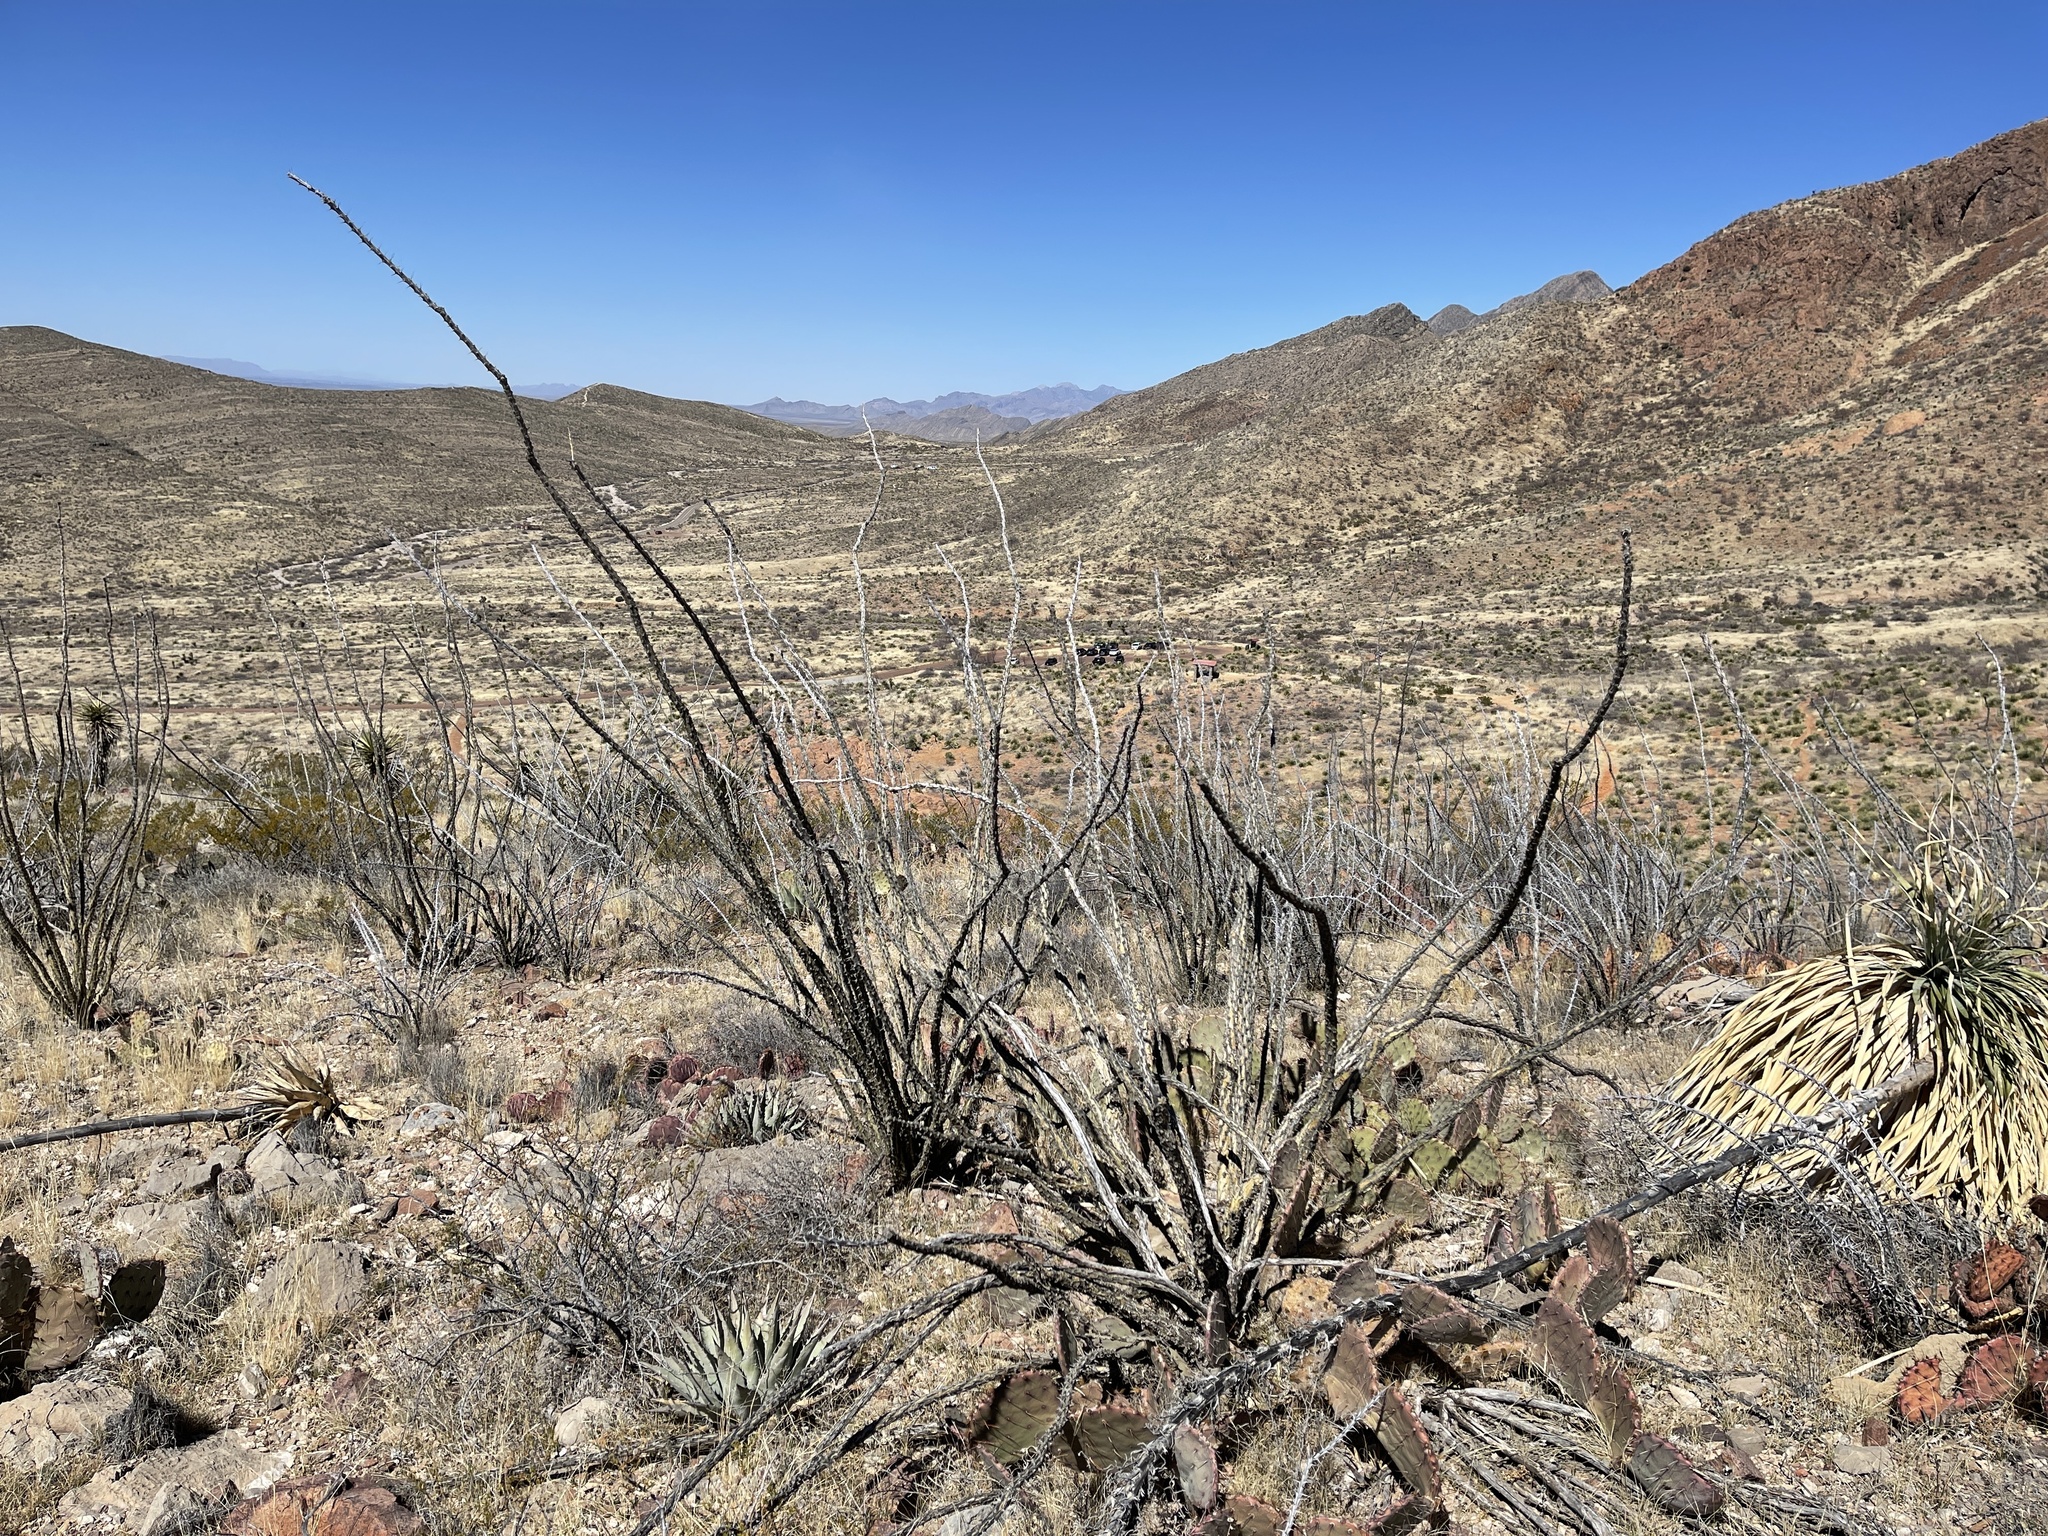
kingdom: Plantae
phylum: Tracheophyta
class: Magnoliopsida
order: Ericales
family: Fouquieriaceae
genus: Fouquieria
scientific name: Fouquieria splendens
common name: Vine-cactus
